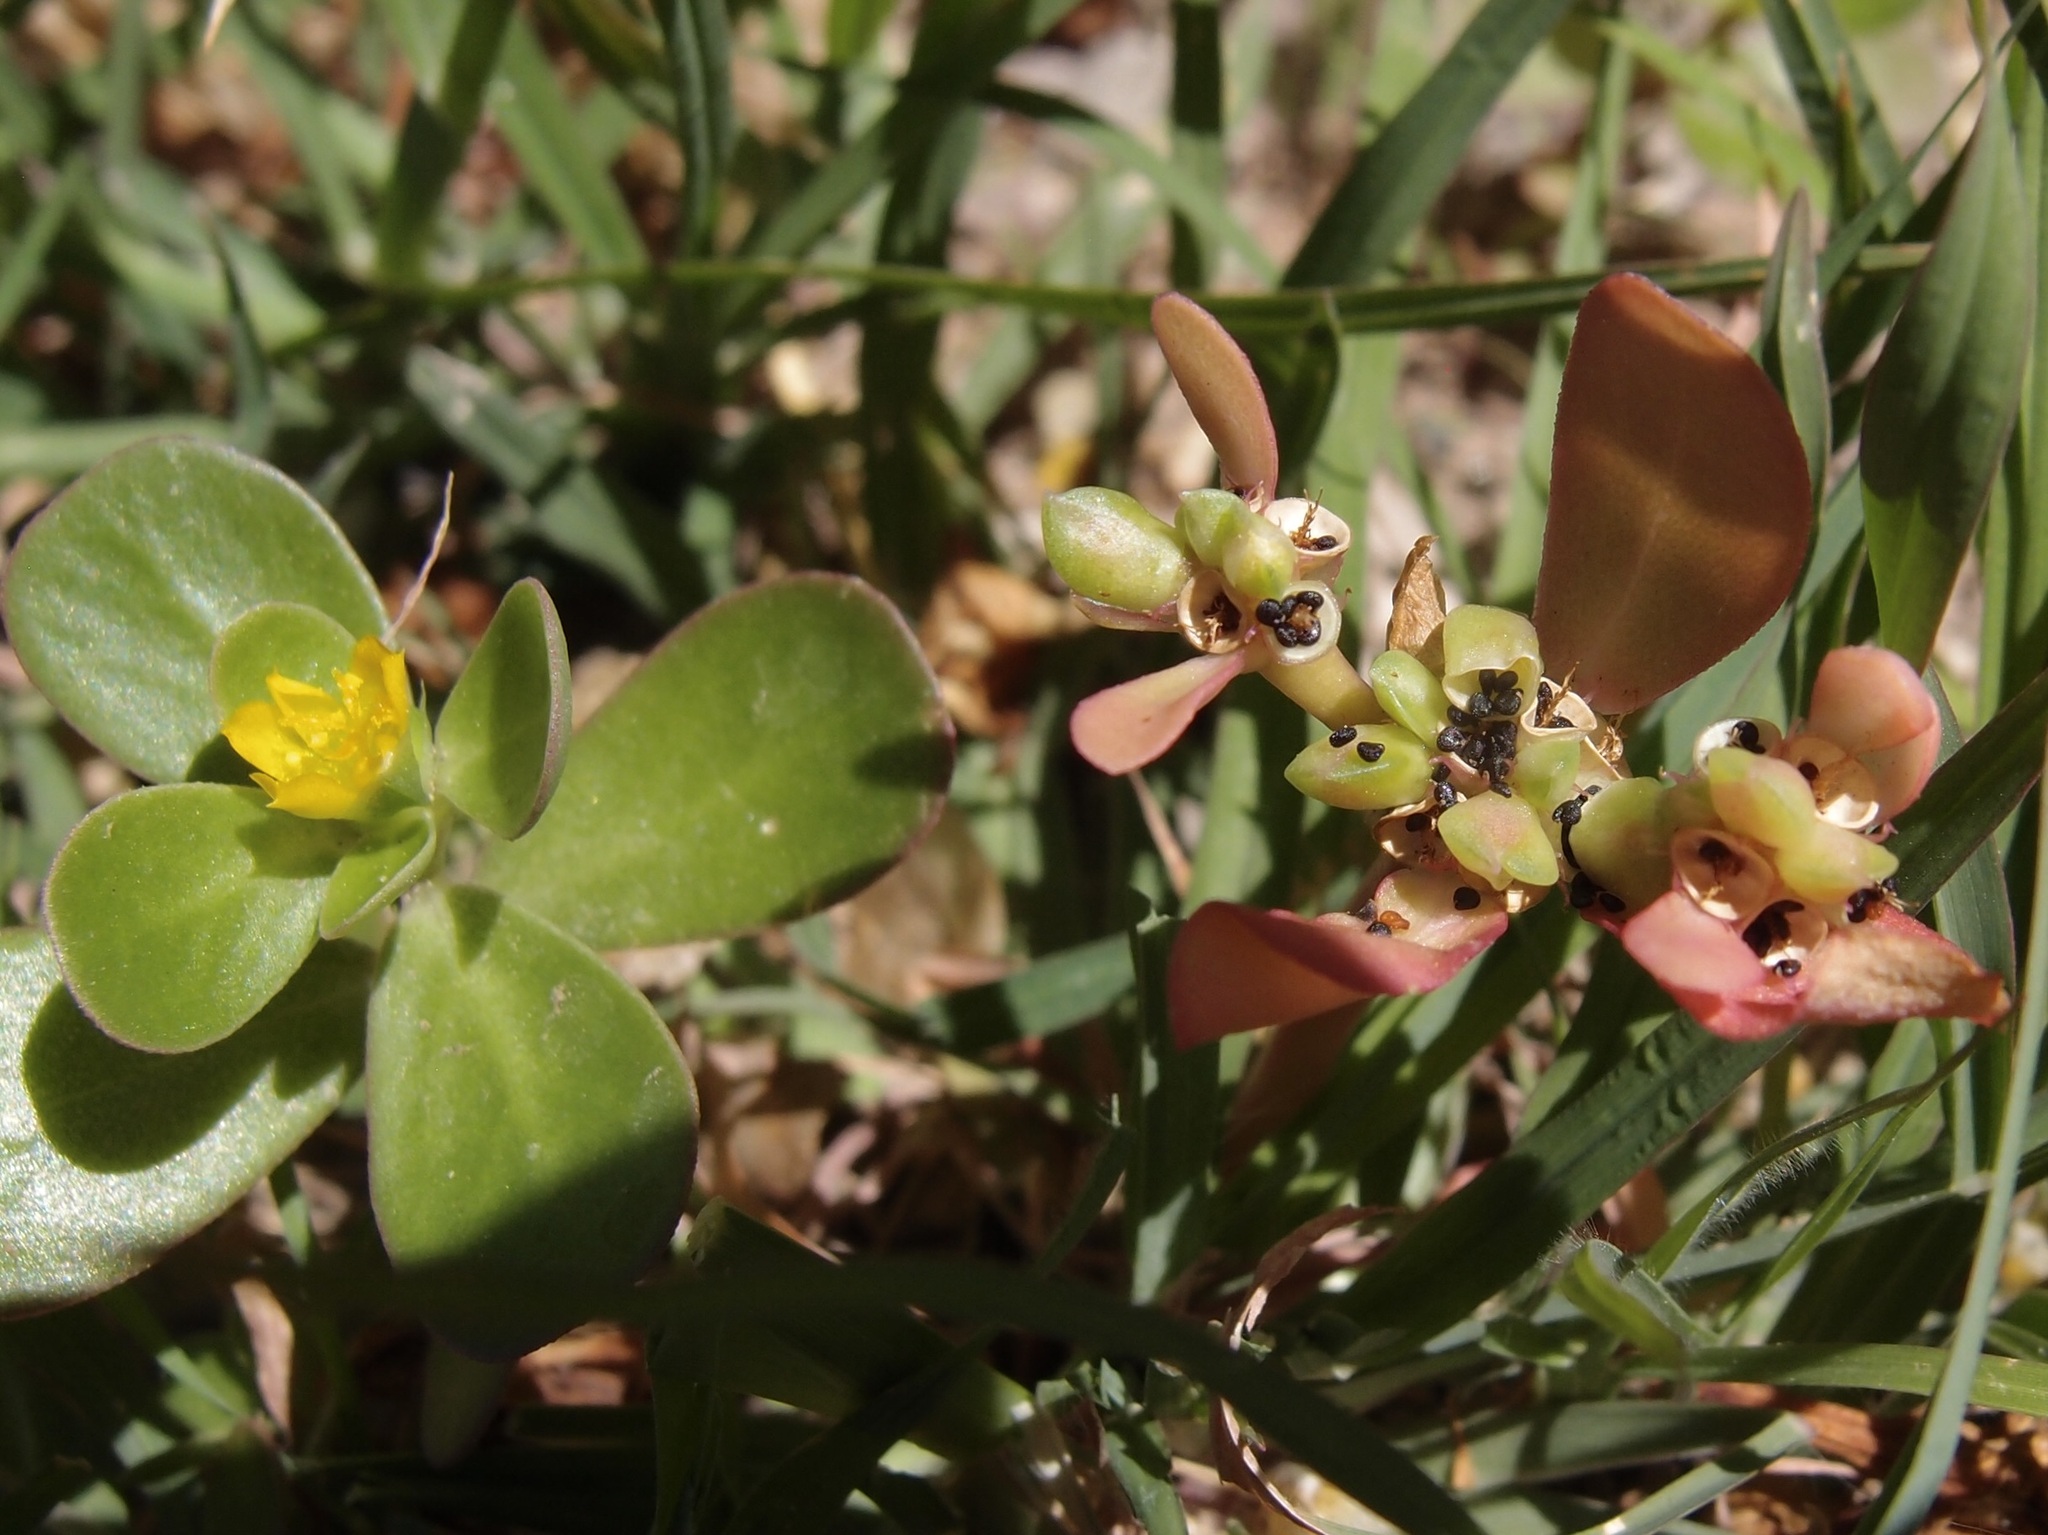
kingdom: Plantae
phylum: Tracheophyta
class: Magnoliopsida
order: Caryophyllales
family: Portulacaceae
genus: Portulaca
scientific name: Portulaca oleracea
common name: Common purslane
